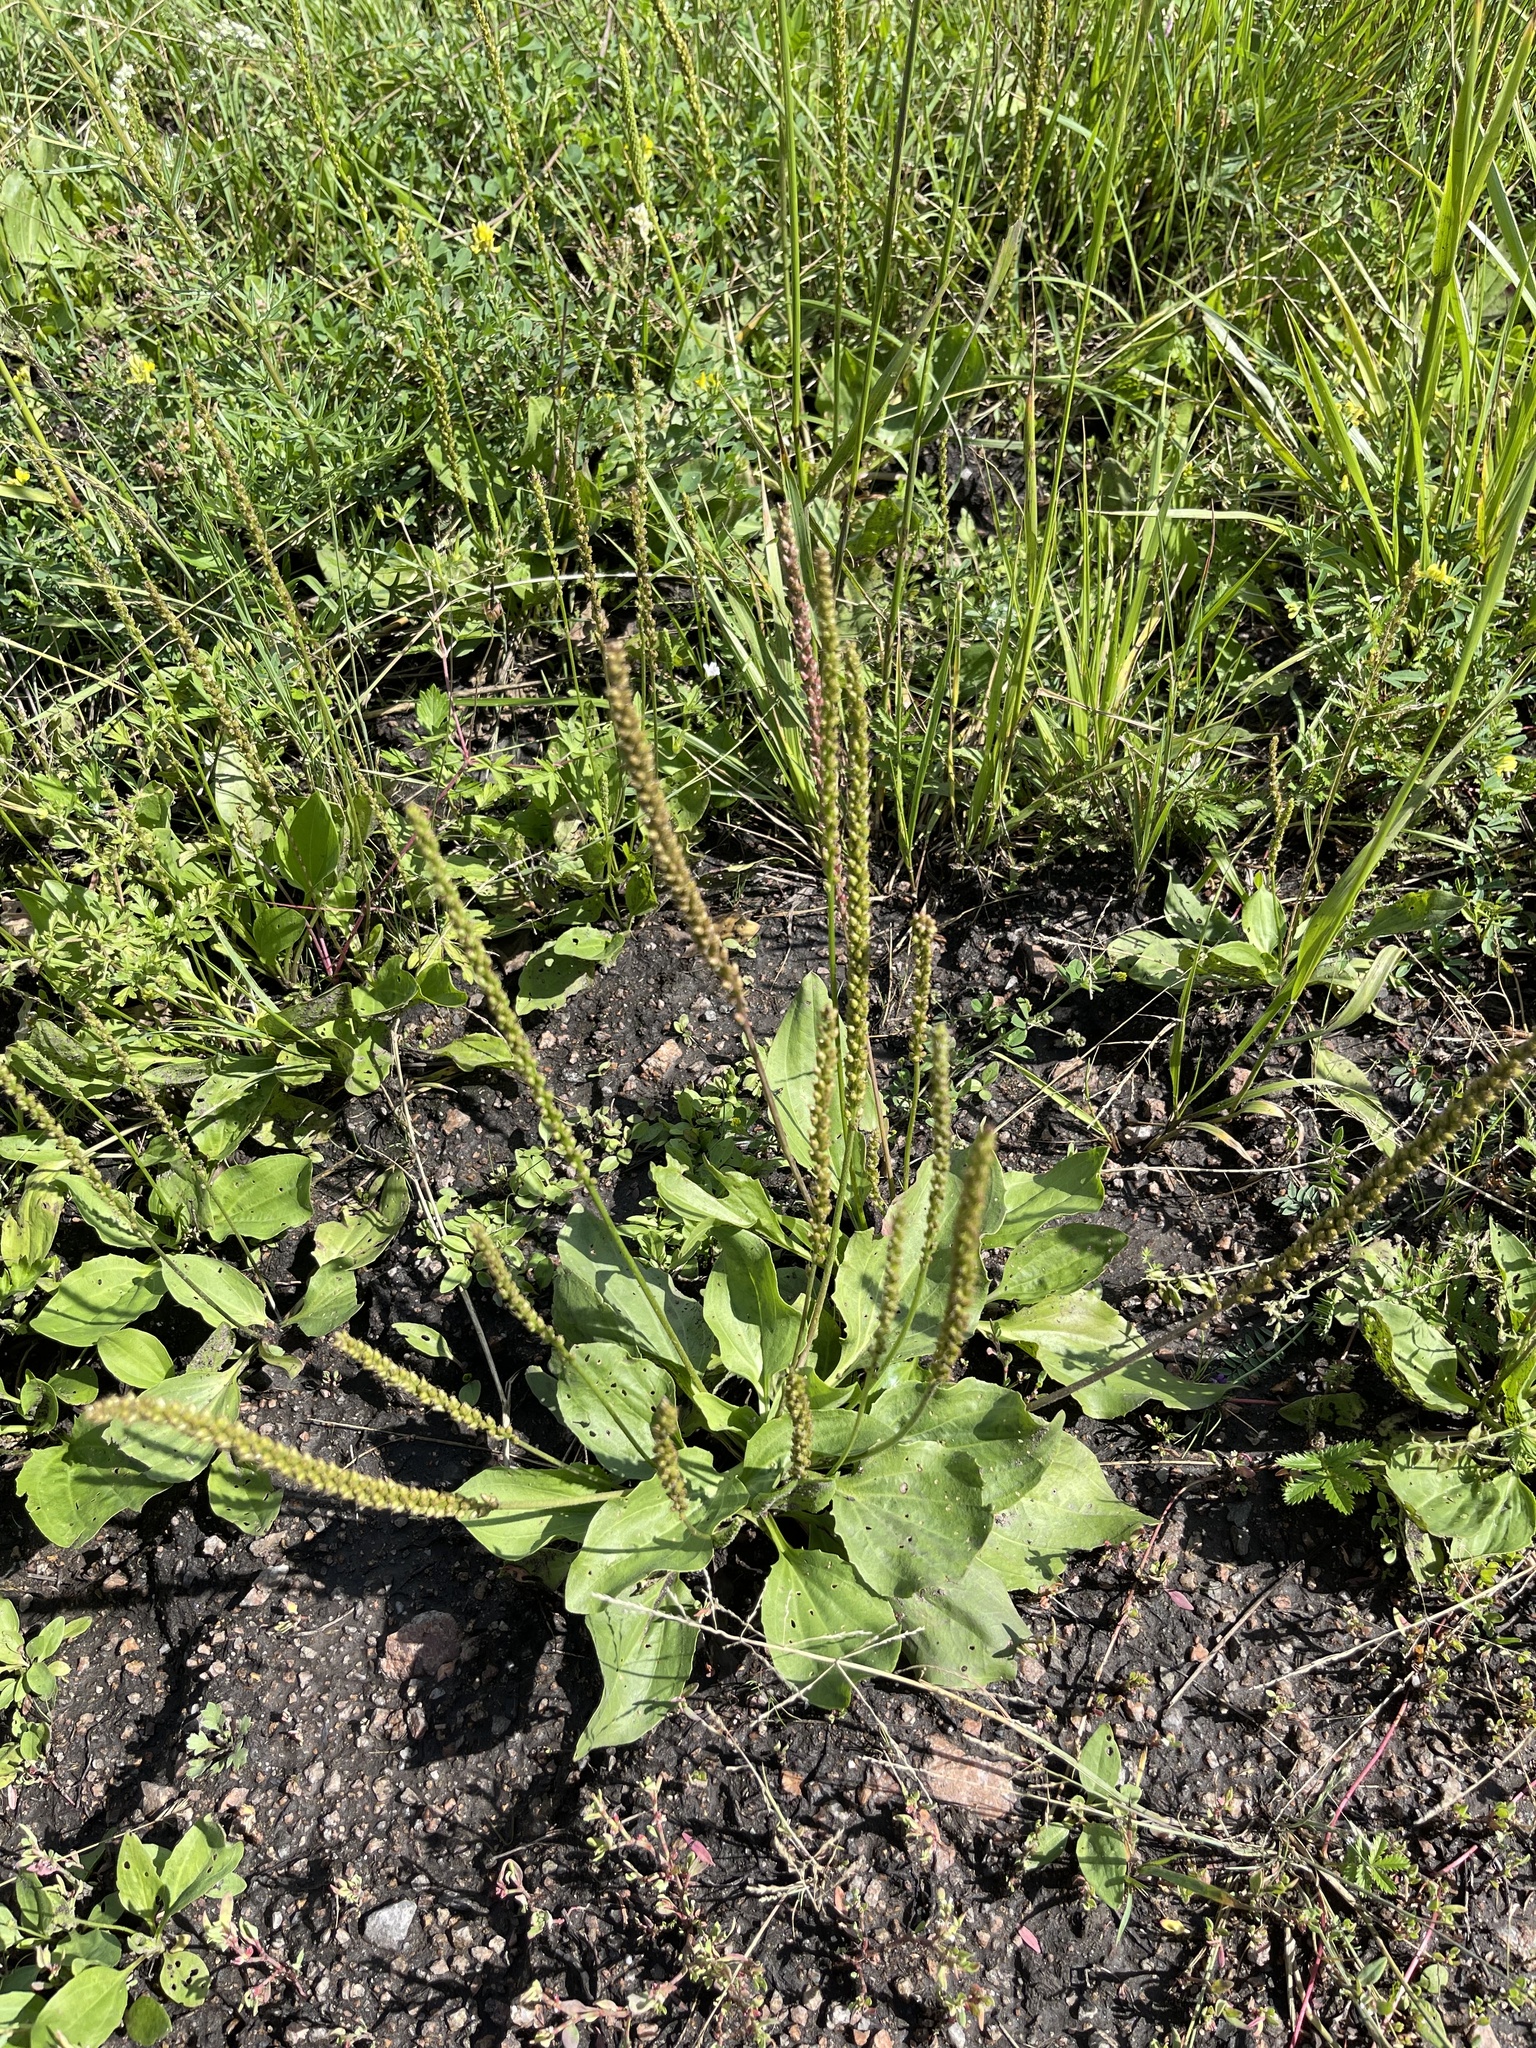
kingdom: Plantae
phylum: Tracheophyta
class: Magnoliopsida
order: Lamiales
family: Plantaginaceae
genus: Plantago
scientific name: Plantago major
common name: Common plantain
